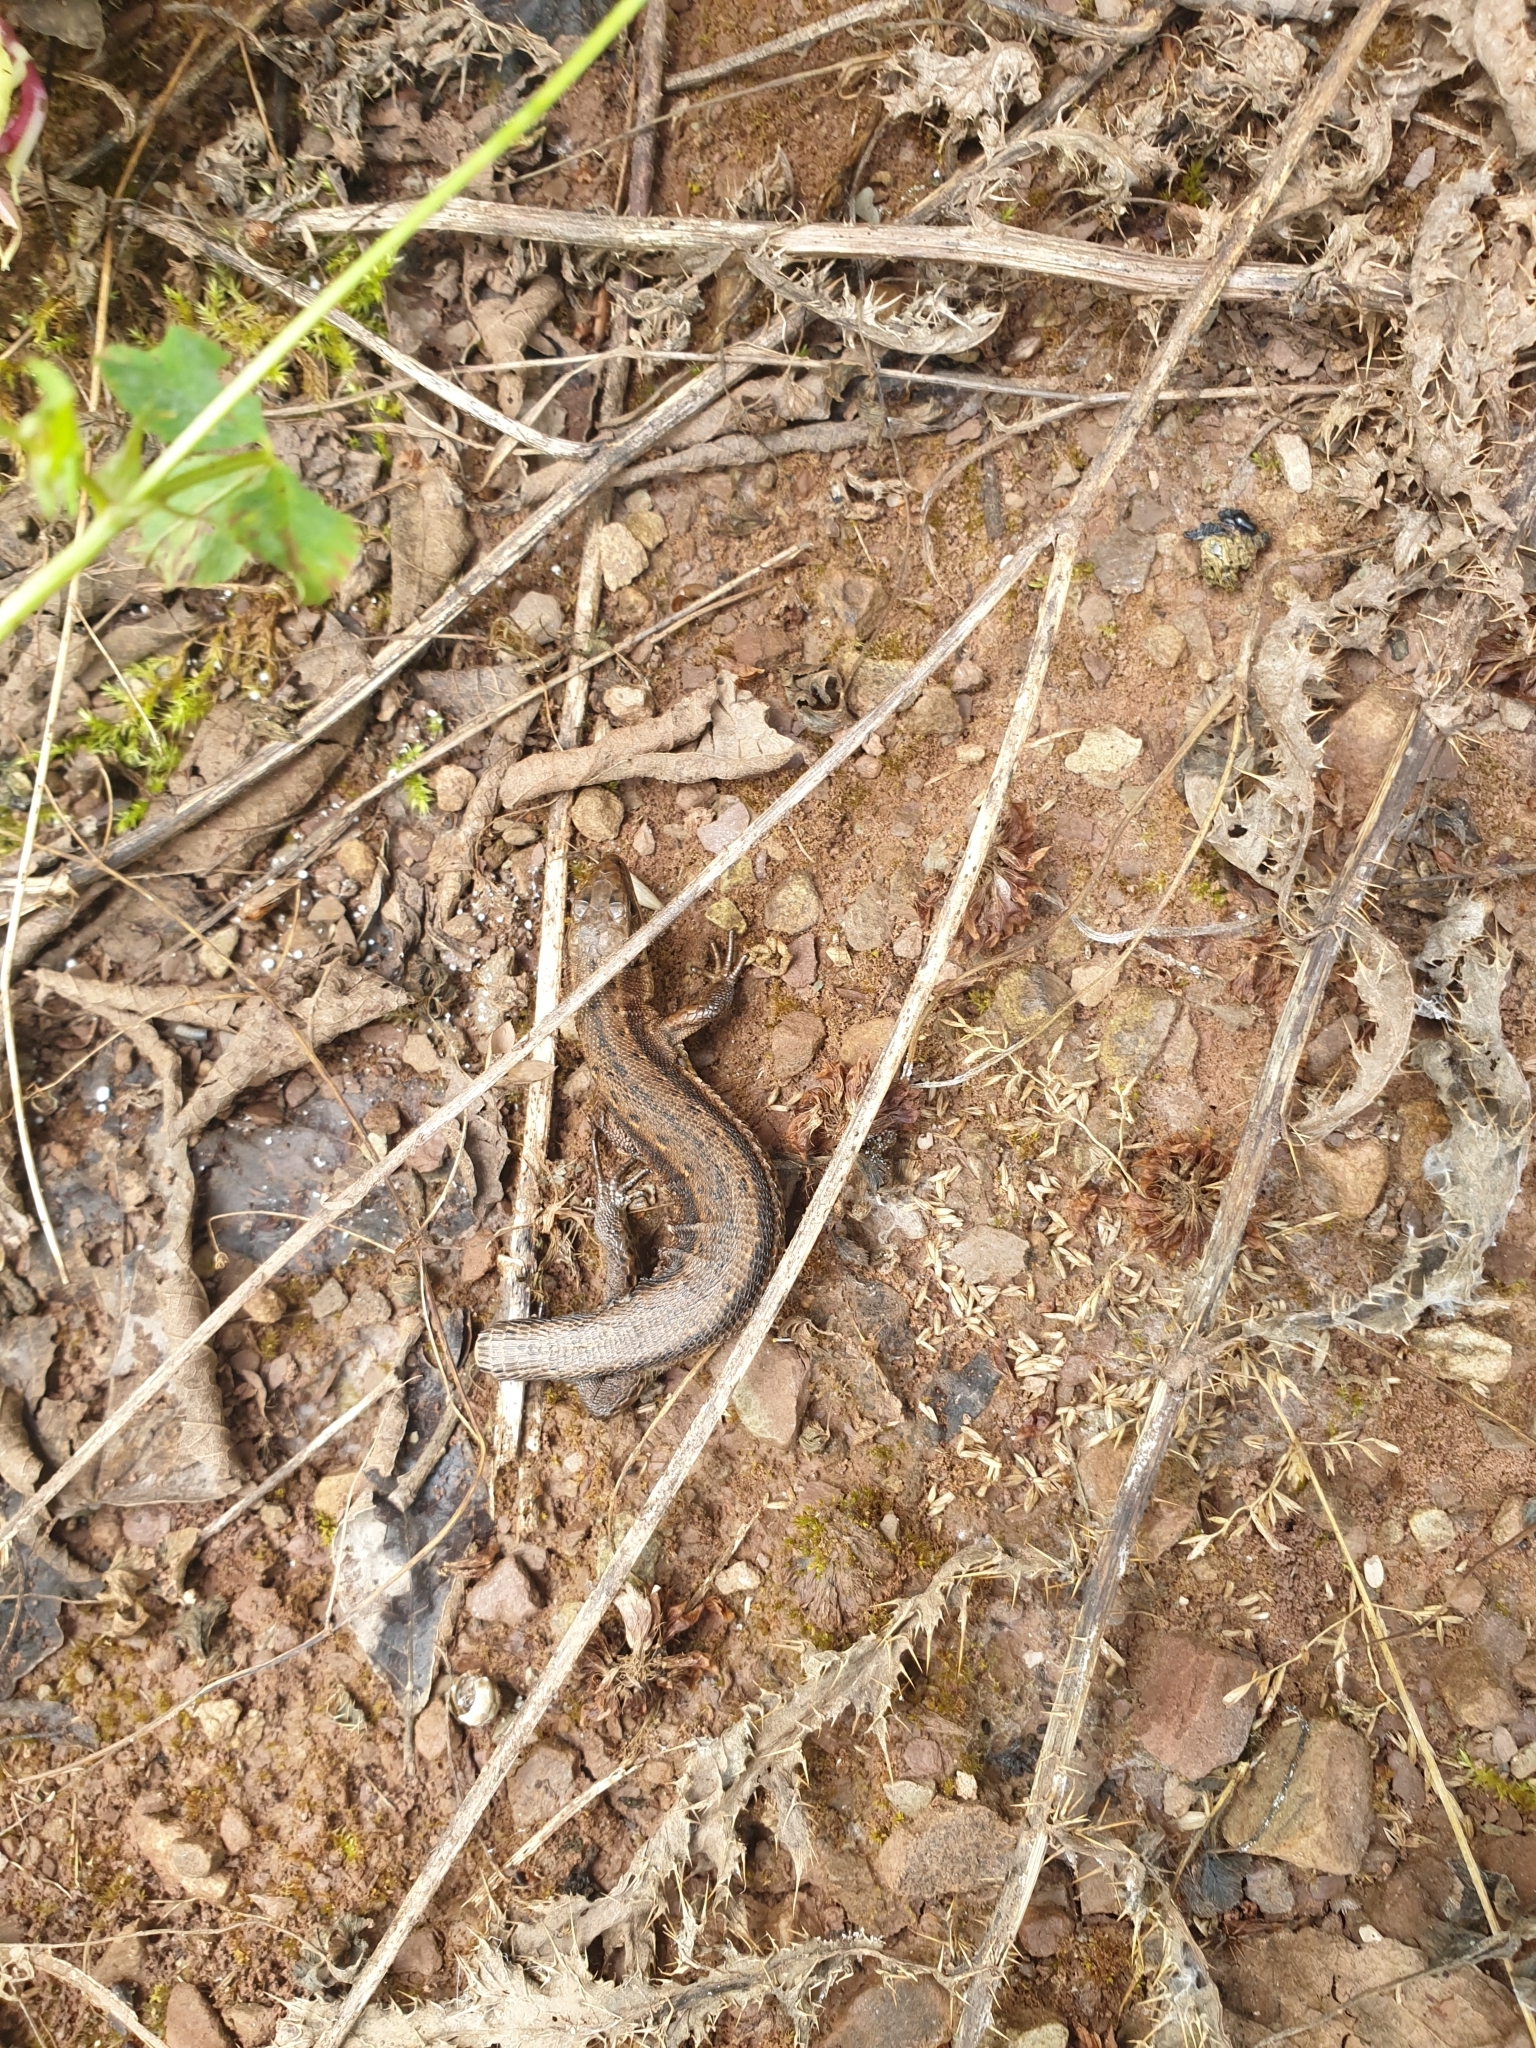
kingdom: Animalia
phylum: Chordata
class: Squamata
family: Lacertidae
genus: Zootoca
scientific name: Zootoca vivipara
